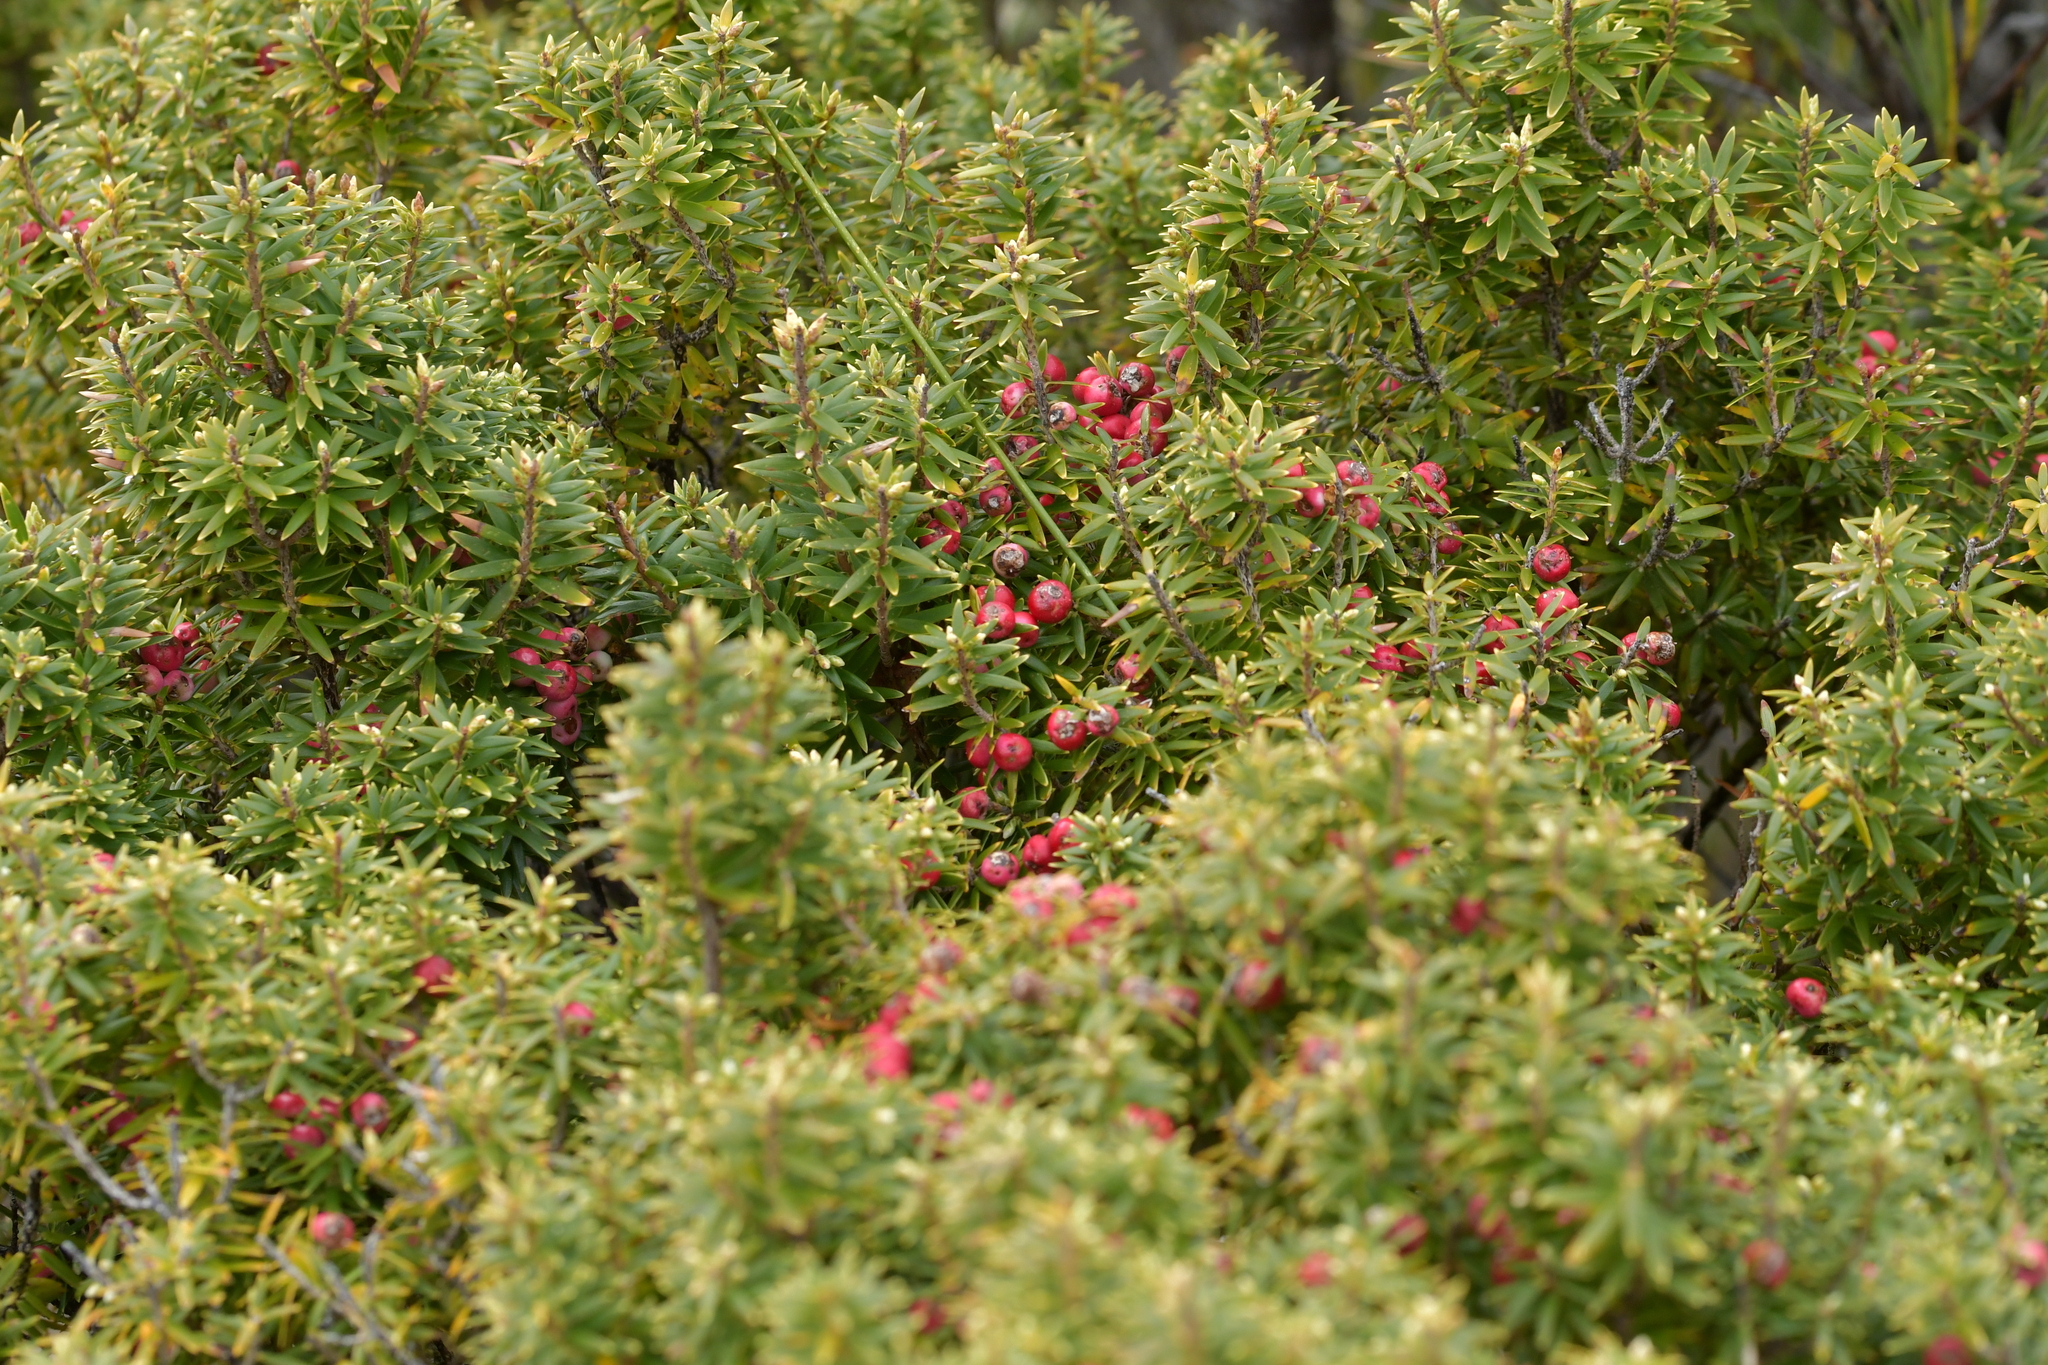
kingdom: Plantae
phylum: Tracheophyta
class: Magnoliopsida
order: Ericales
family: Ericaceae
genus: Leptecophylla
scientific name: Leptecophylla robusta
